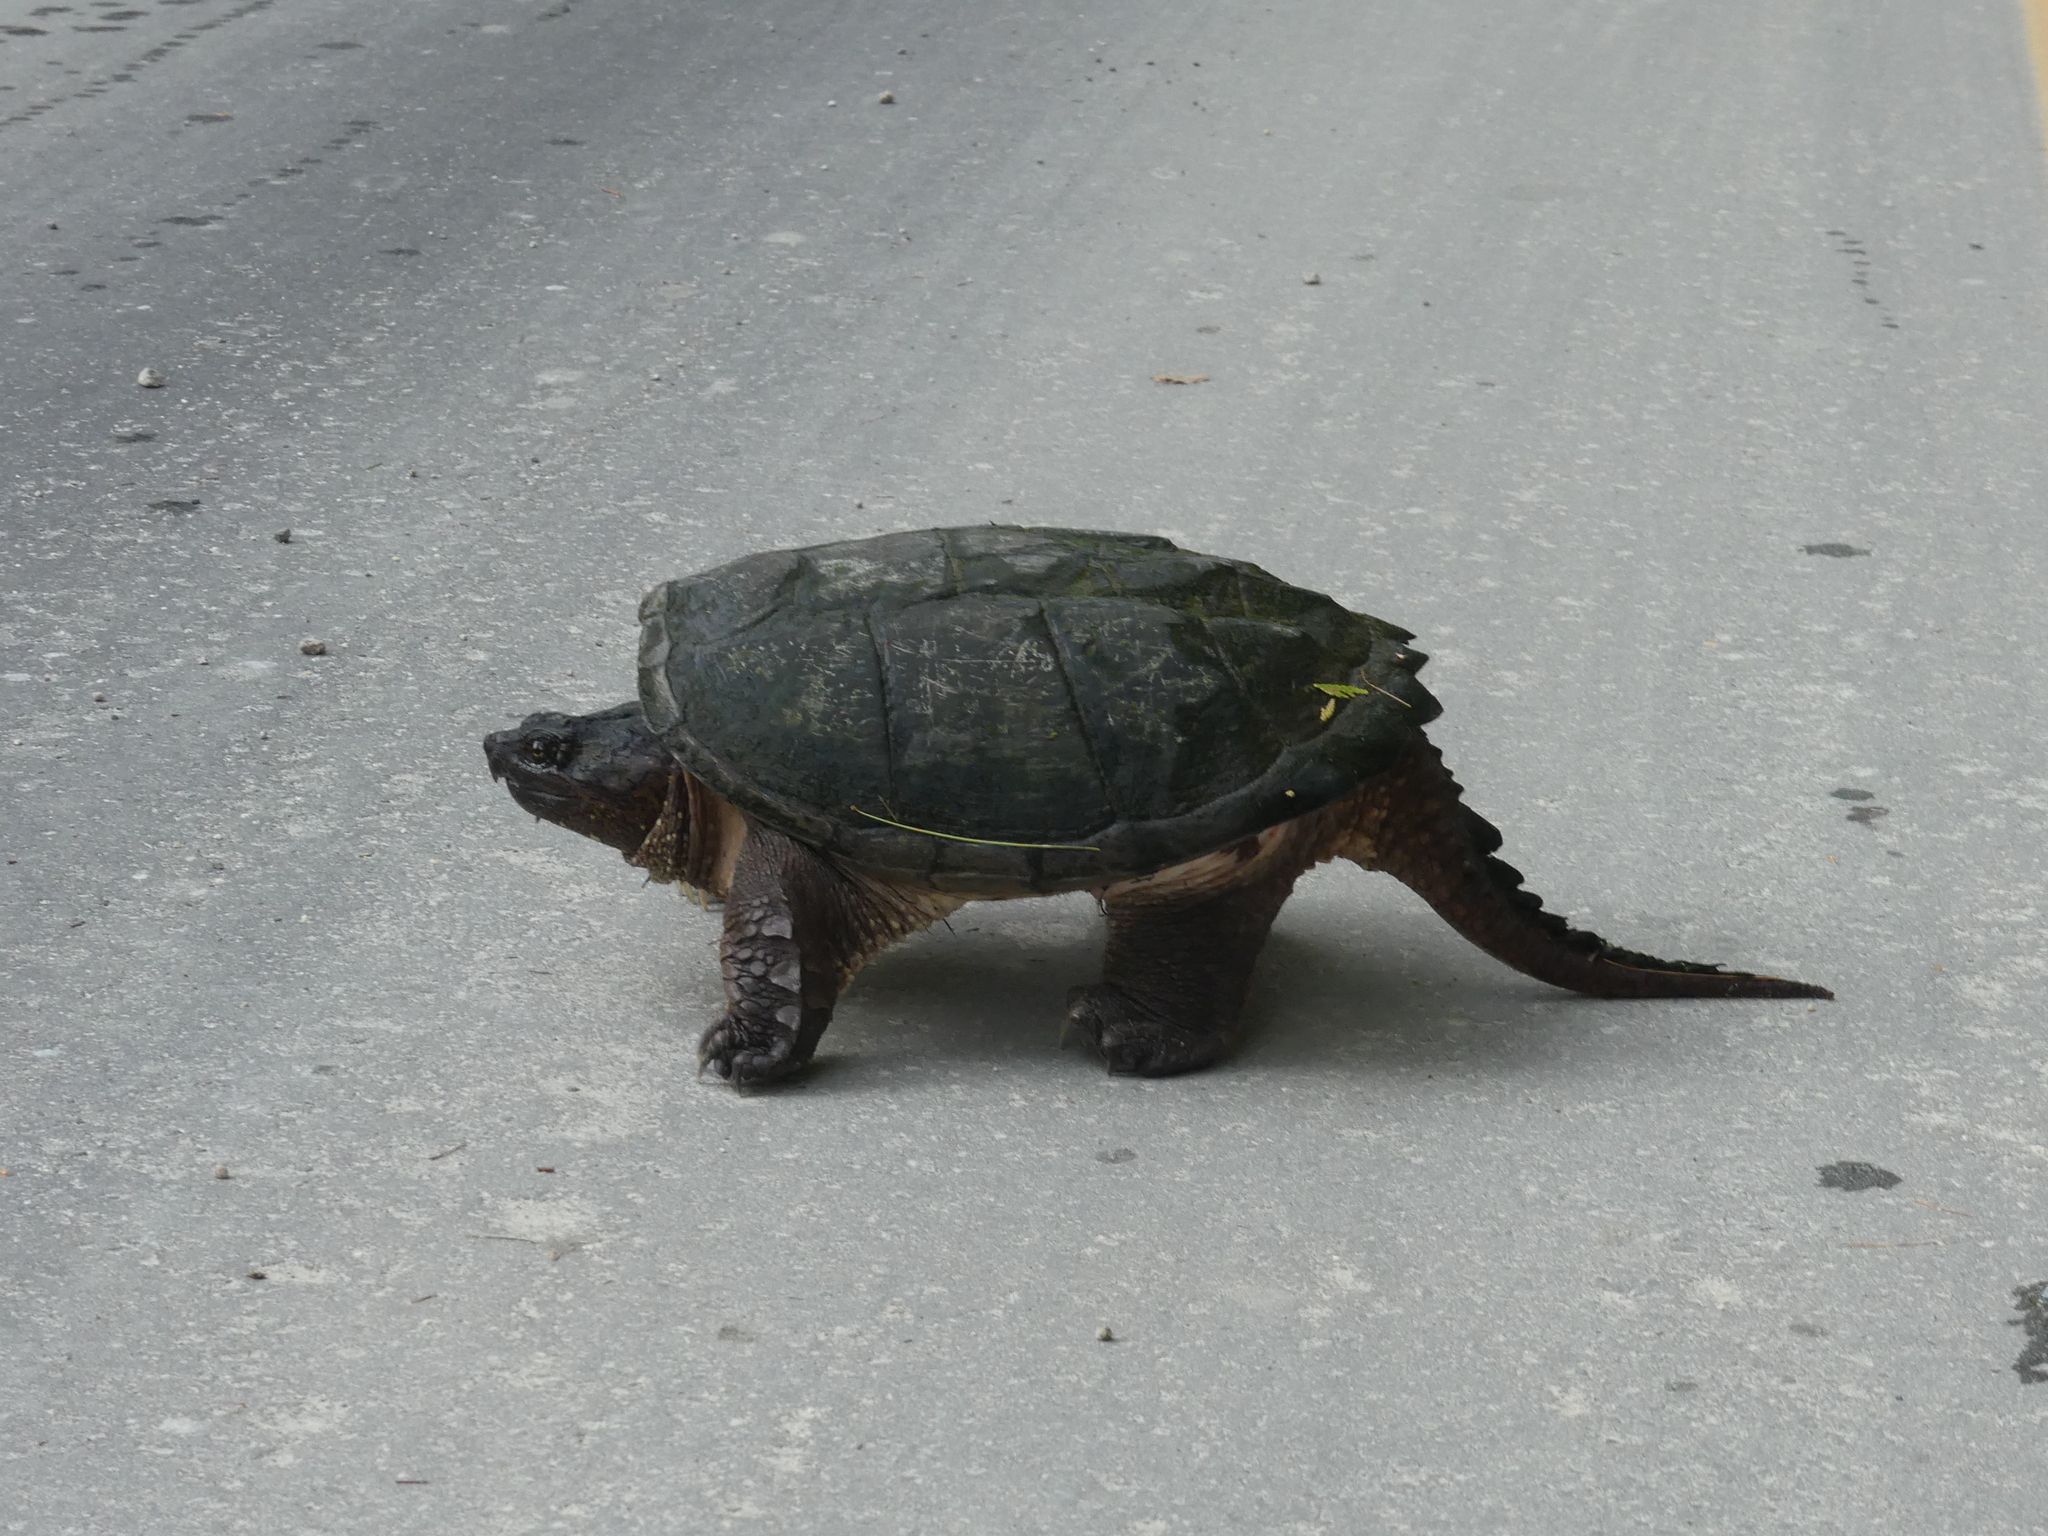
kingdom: Animalia
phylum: Chordata
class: Testudines
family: Chelydridae
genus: Chelydra
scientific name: Chelydra serpentina
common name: Common snapping turtle
